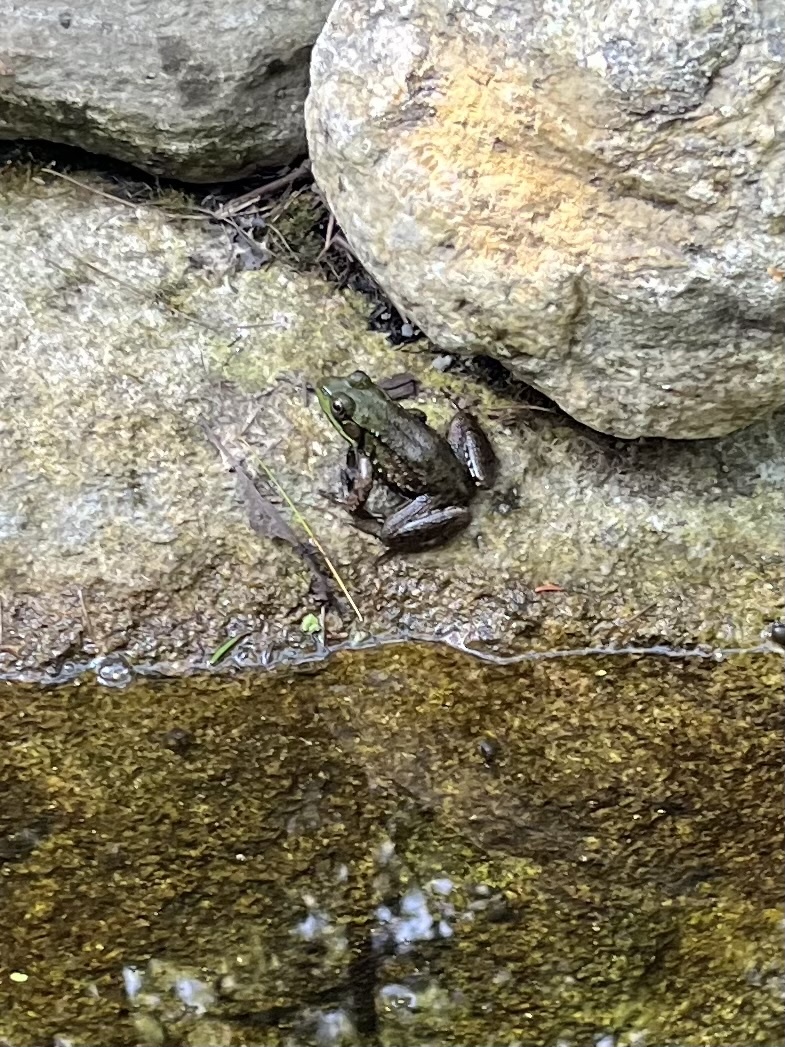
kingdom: Animalia
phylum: Chordata
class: Amphibia
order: Anura
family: Ranidae
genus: Lithobates
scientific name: Lithobates clamitans
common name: Green frog
